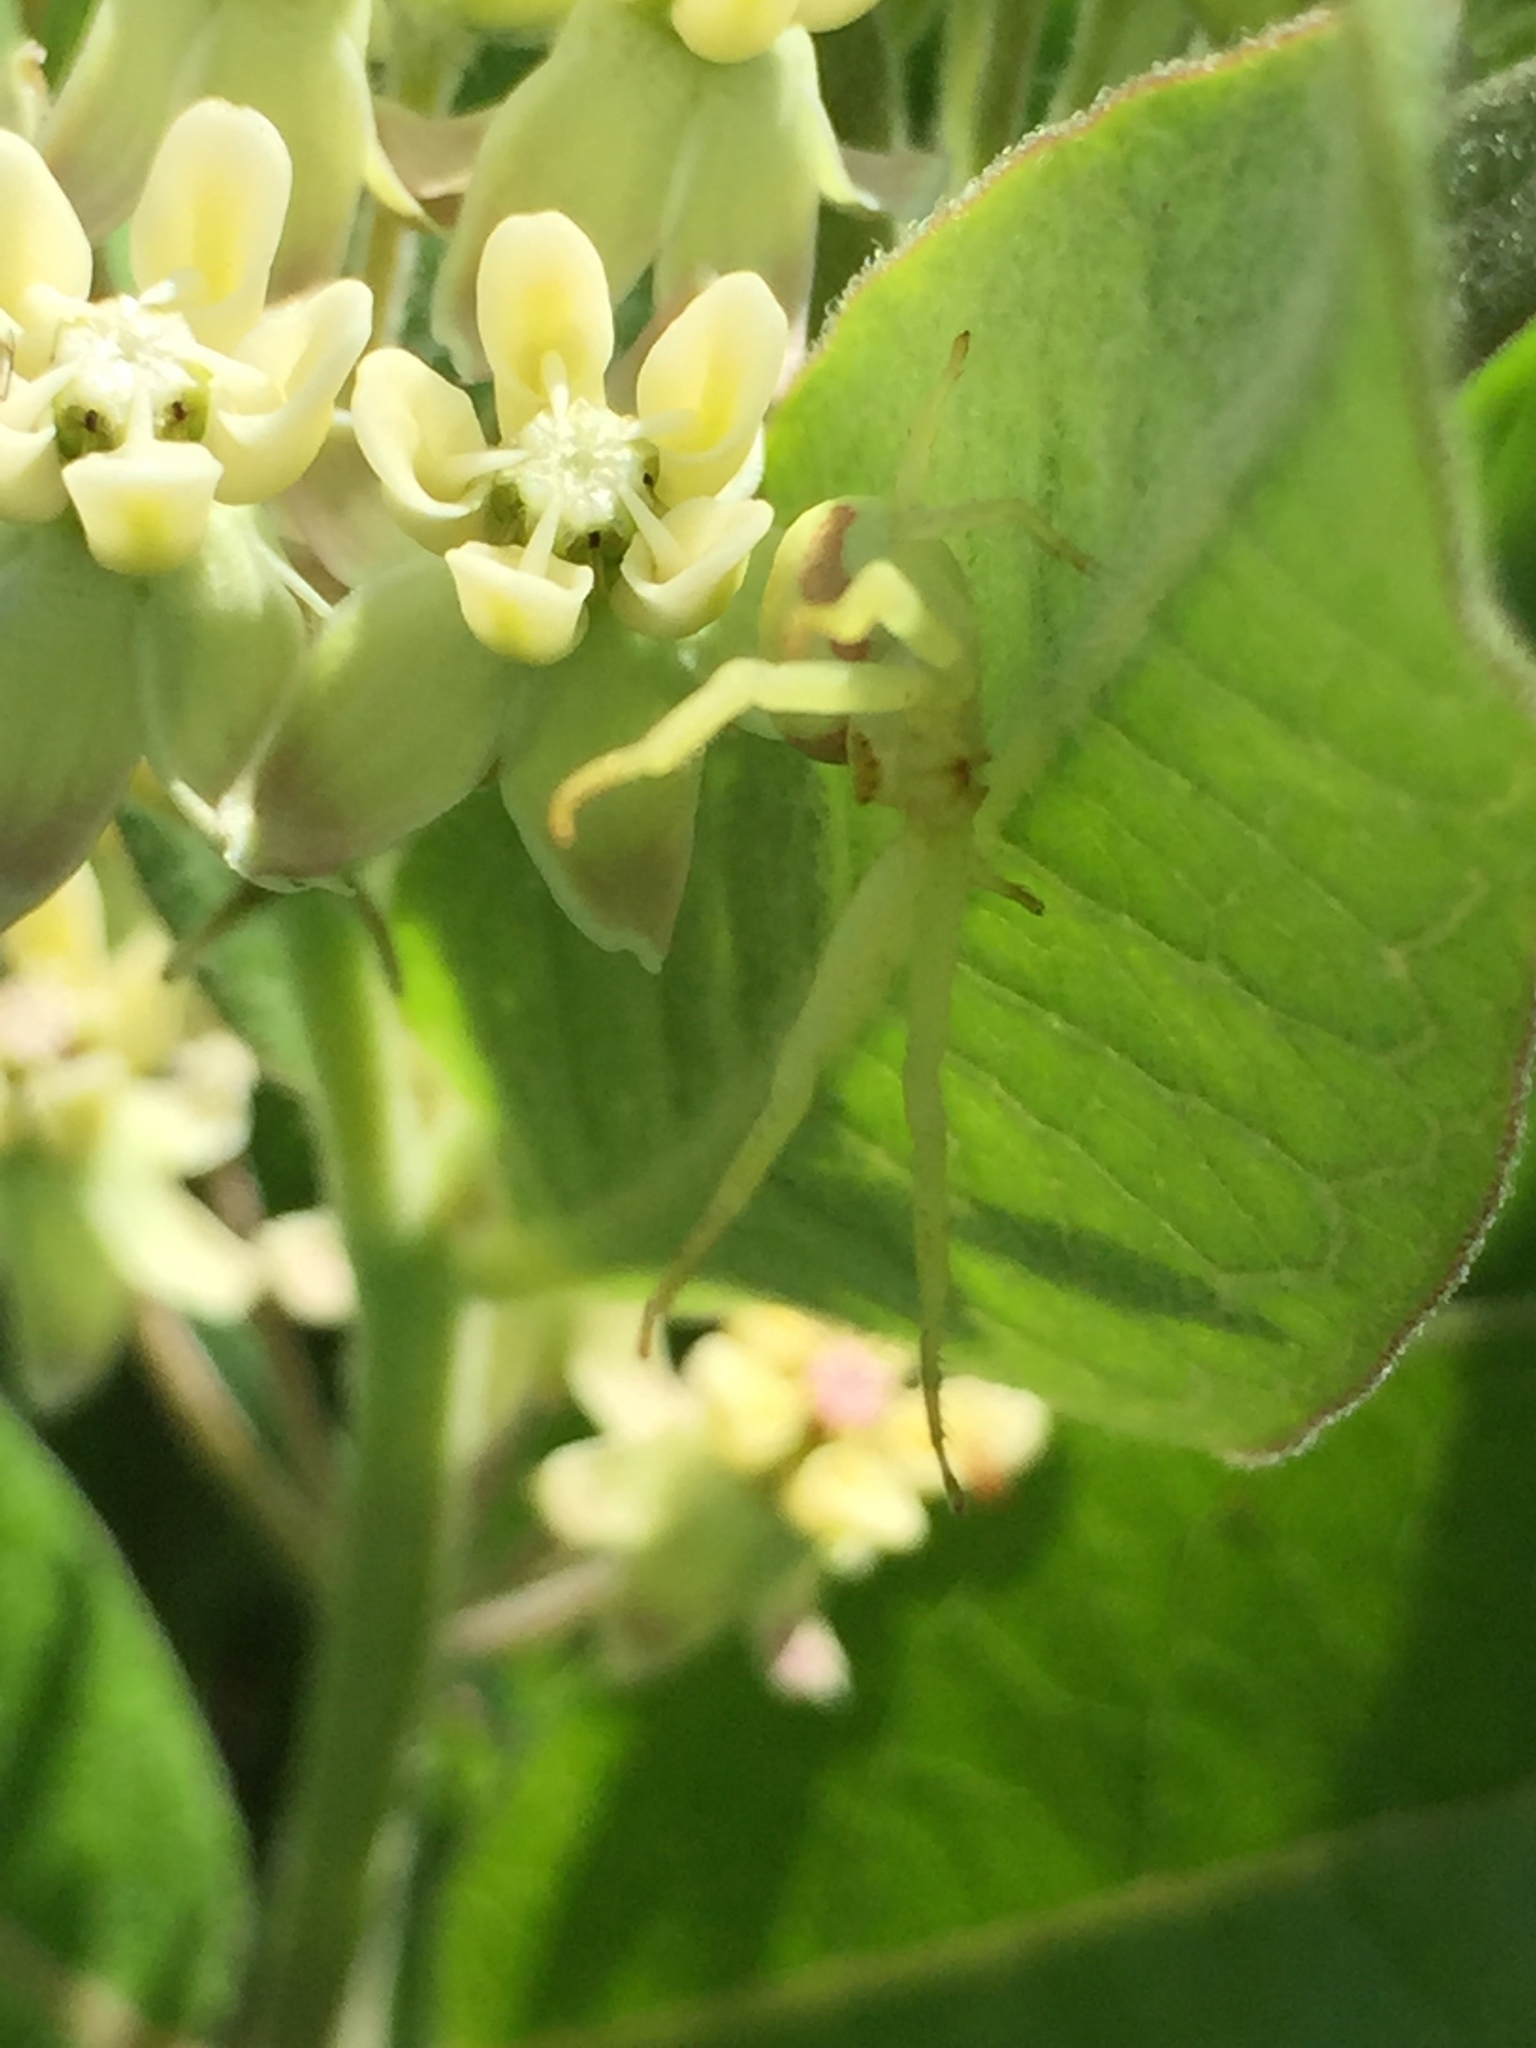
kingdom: Animalia
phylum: Arthropoda
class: Arachnida
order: Araneae
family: Thomisidae
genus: Misumena
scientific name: Misumena vatia
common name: Goldenrod crab spider
